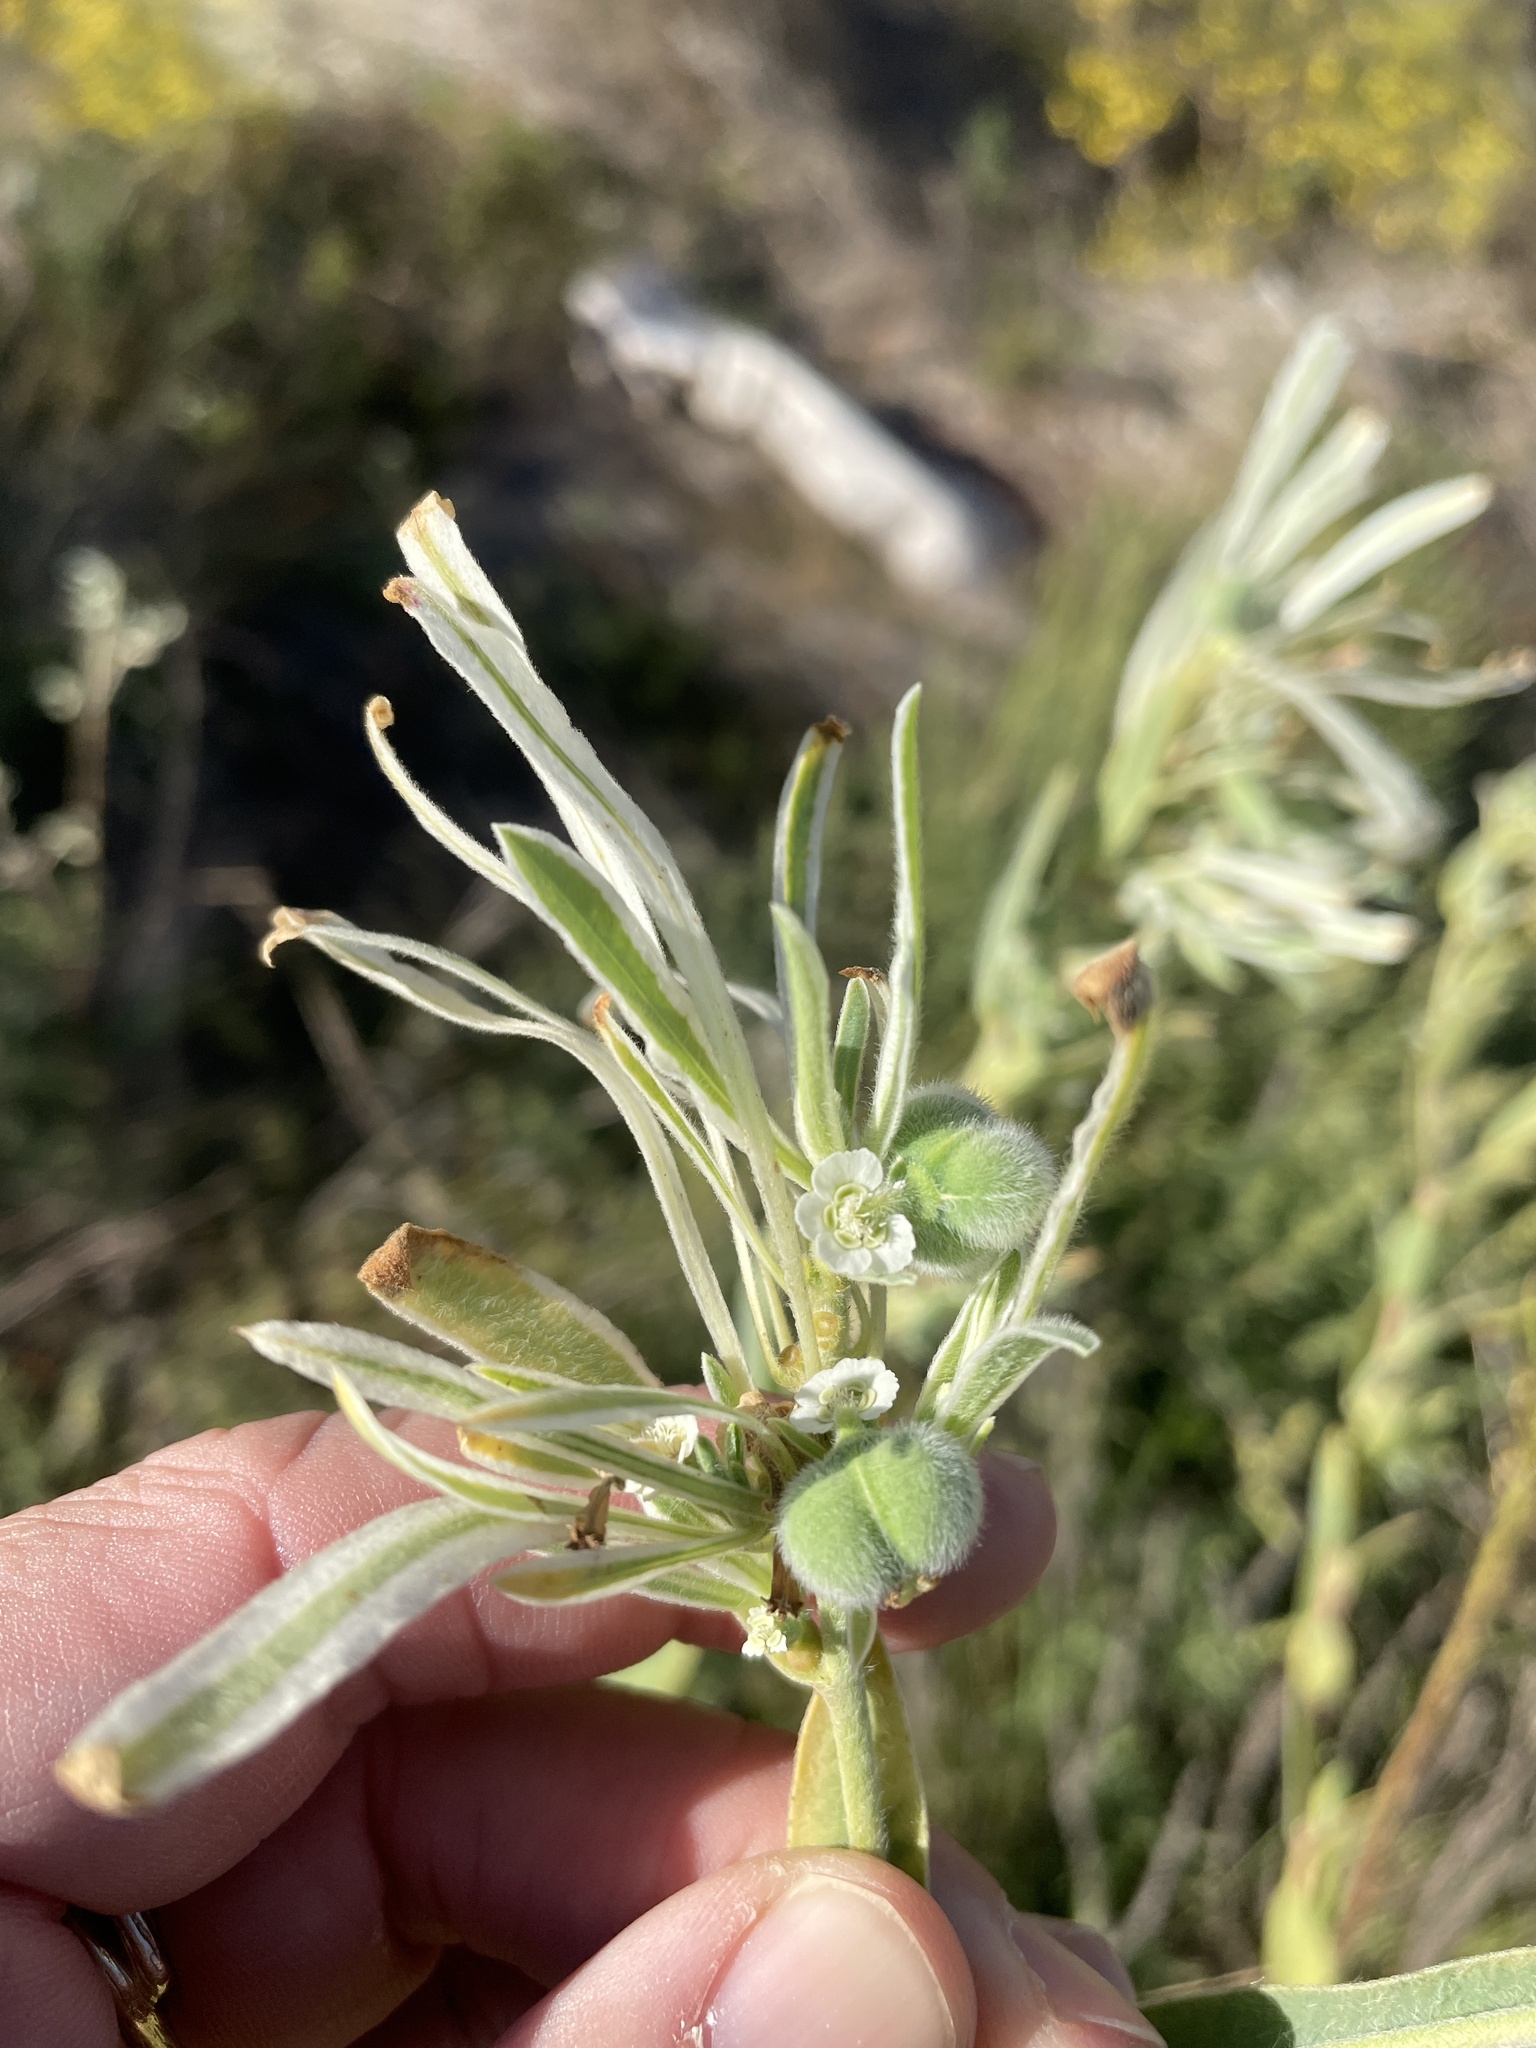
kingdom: Plantae
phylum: Tracheophyta
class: Magnoliopsida
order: Malpighiales
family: Euphorbiaceae
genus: Euphorbia
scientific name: Euphorbia bicolor
